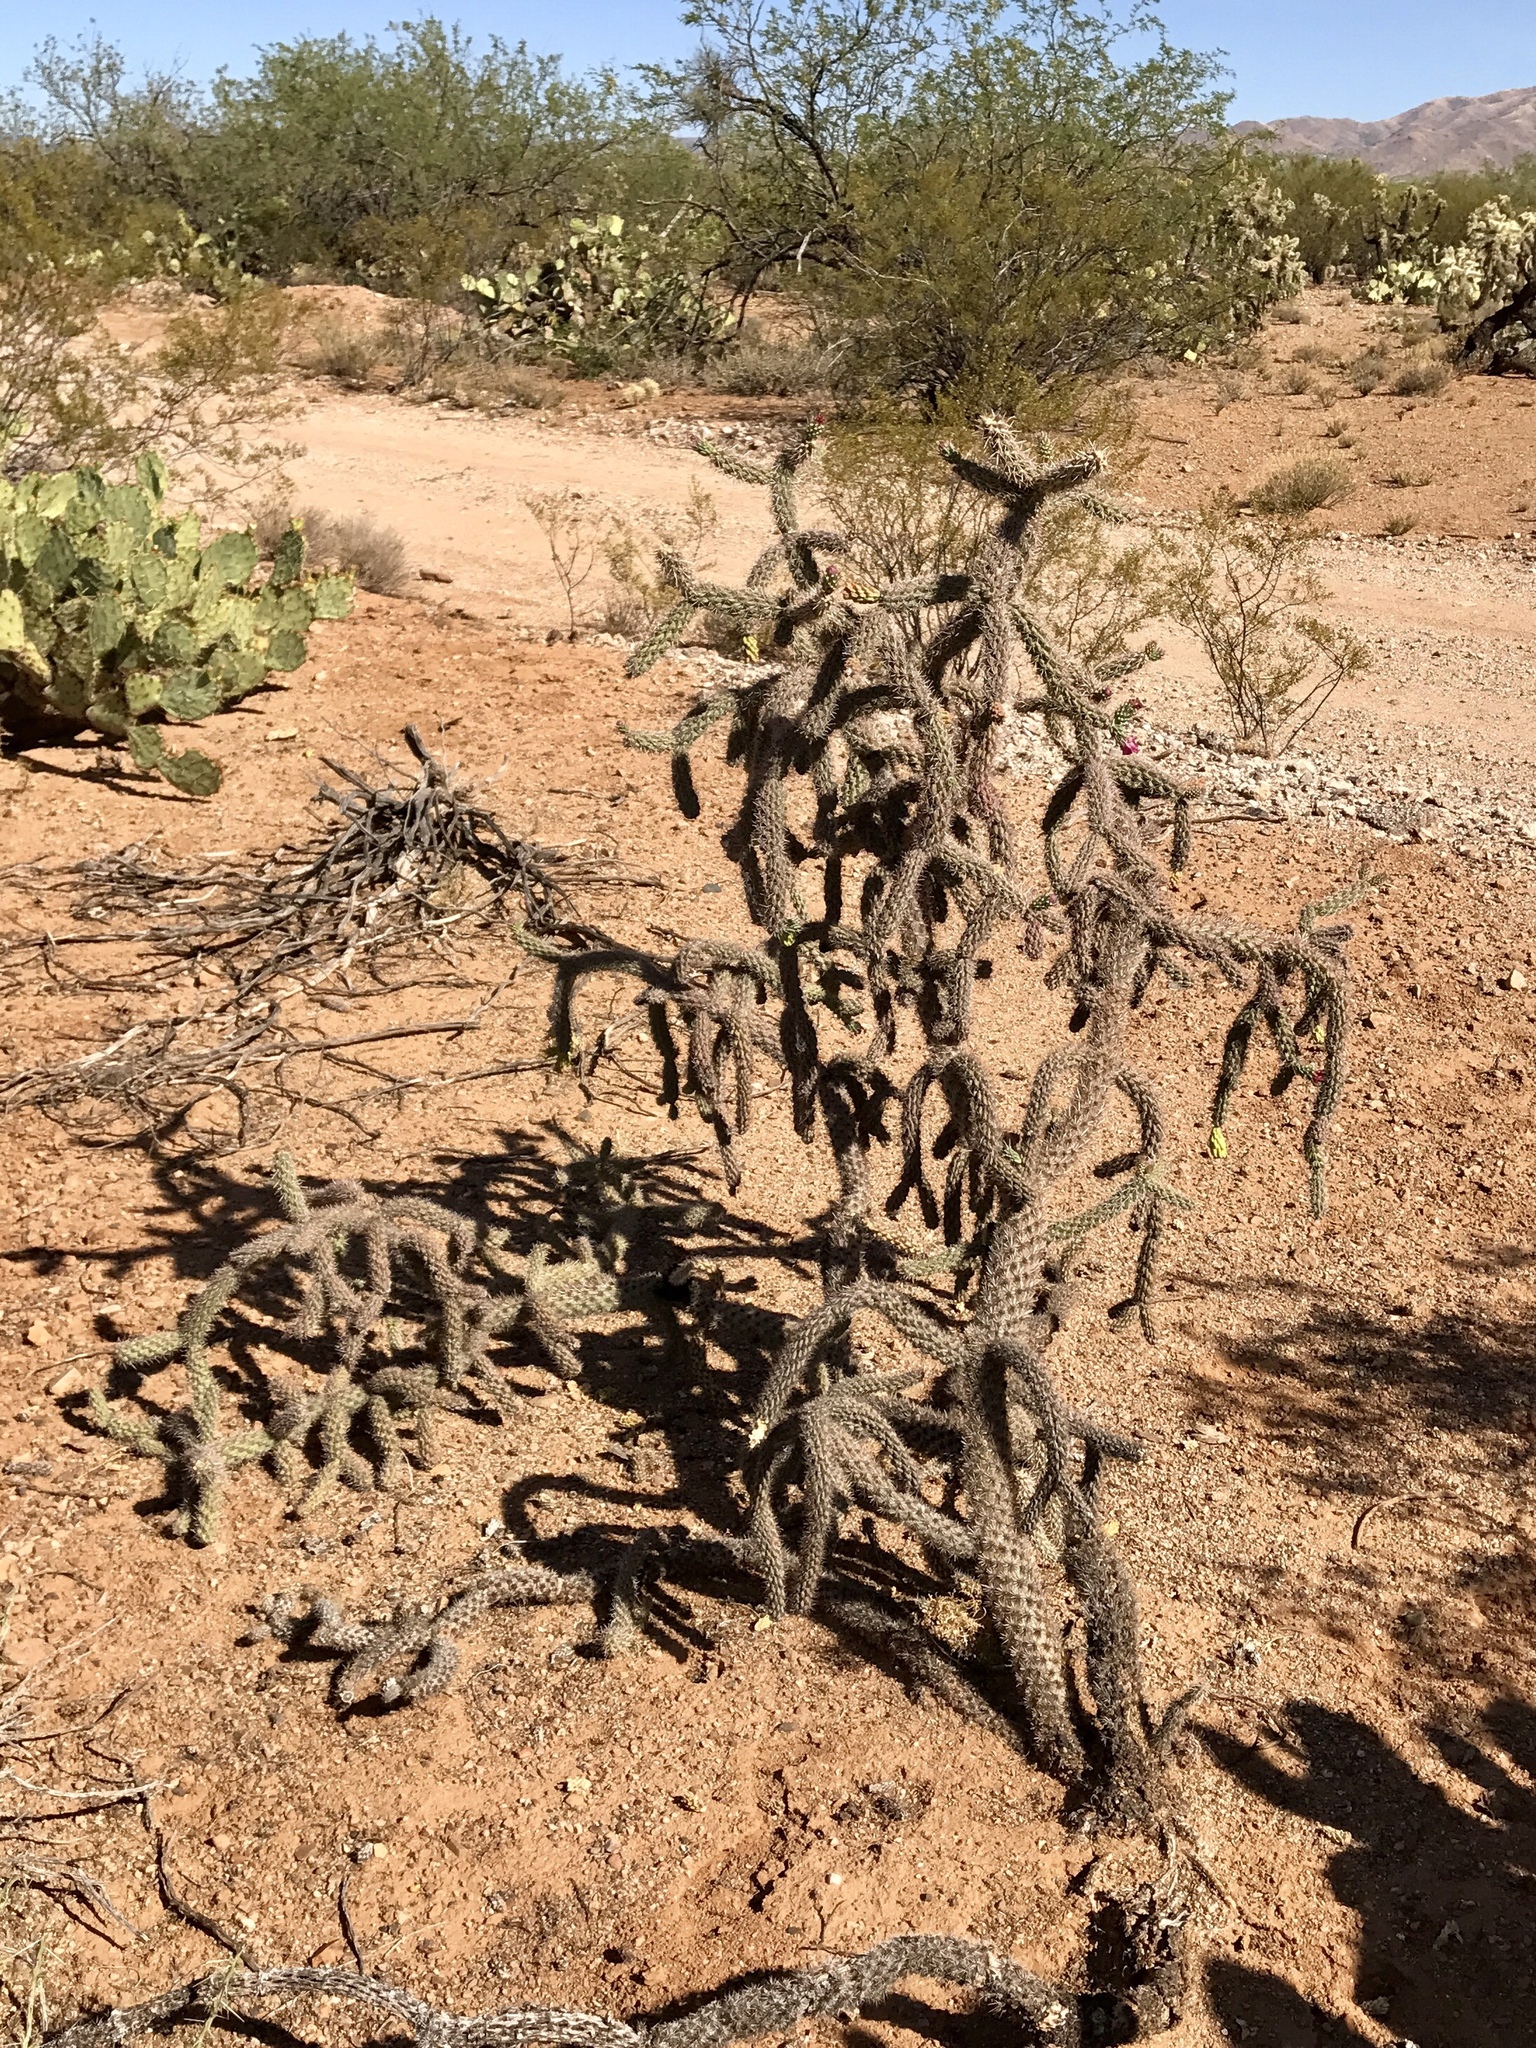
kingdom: Plantae
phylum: Tracheophyta
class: Magnoliopsida
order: Caryophyllales
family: Cactaceae
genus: Cylindropuntia
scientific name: Cylindropuntia imbricata
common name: Candelabrum cactus
